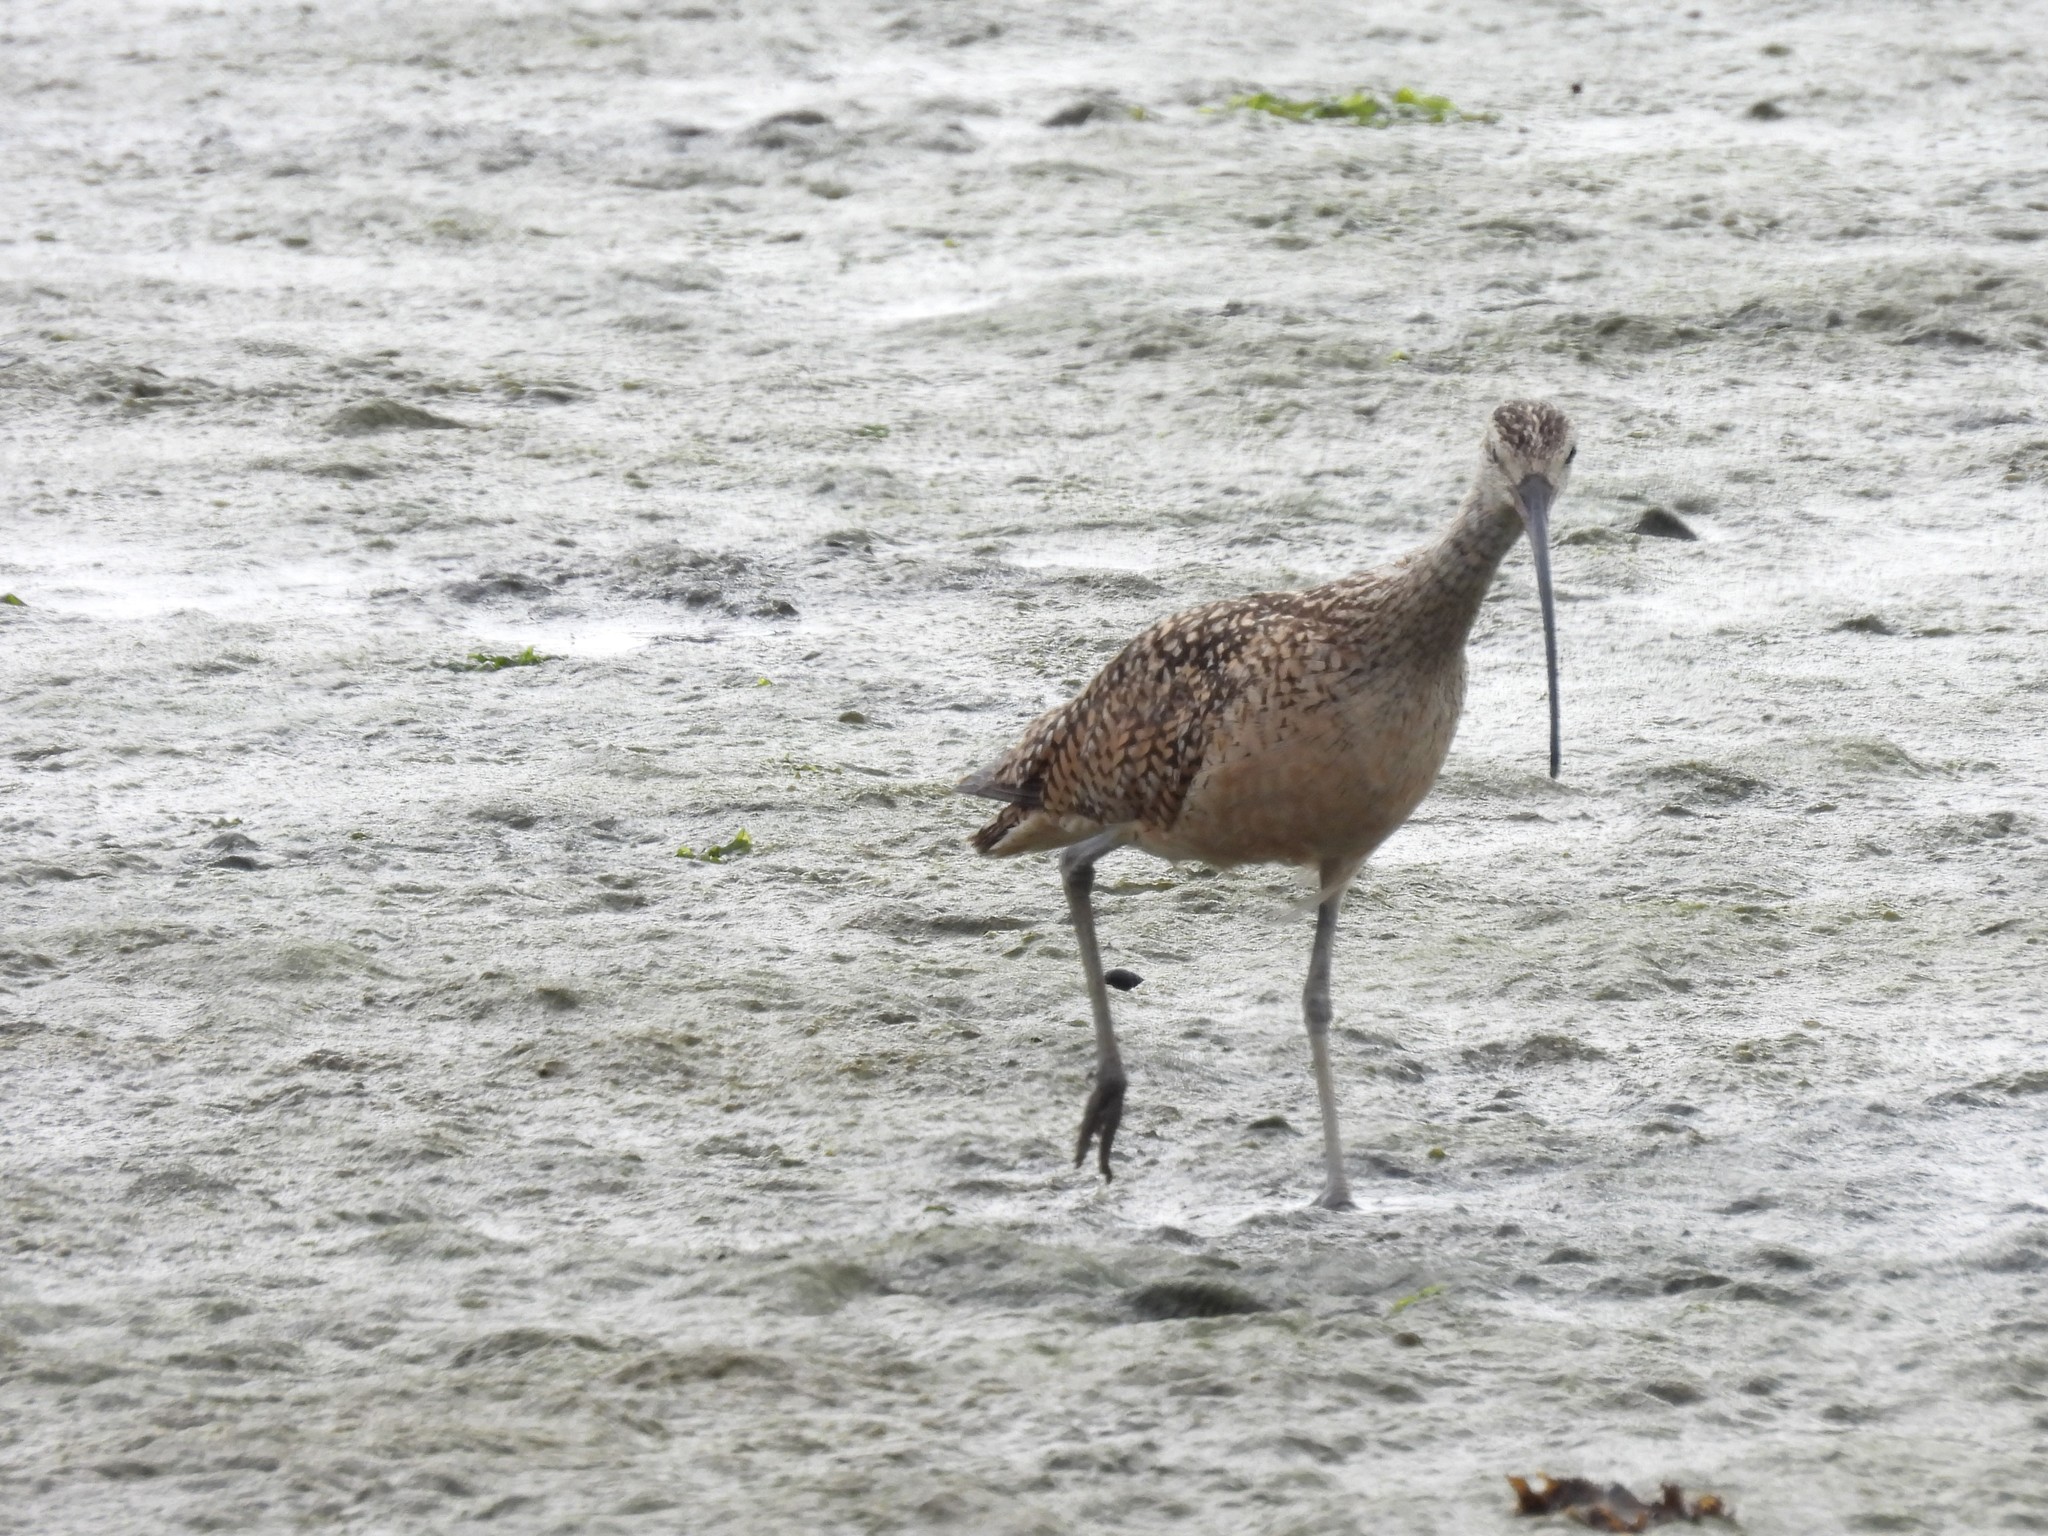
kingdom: Animalia
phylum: Chordata
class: Aves
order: Charadriiformes
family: Scolopacidae
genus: Numenius
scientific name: Numenius americanus
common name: Long-billed curlew
